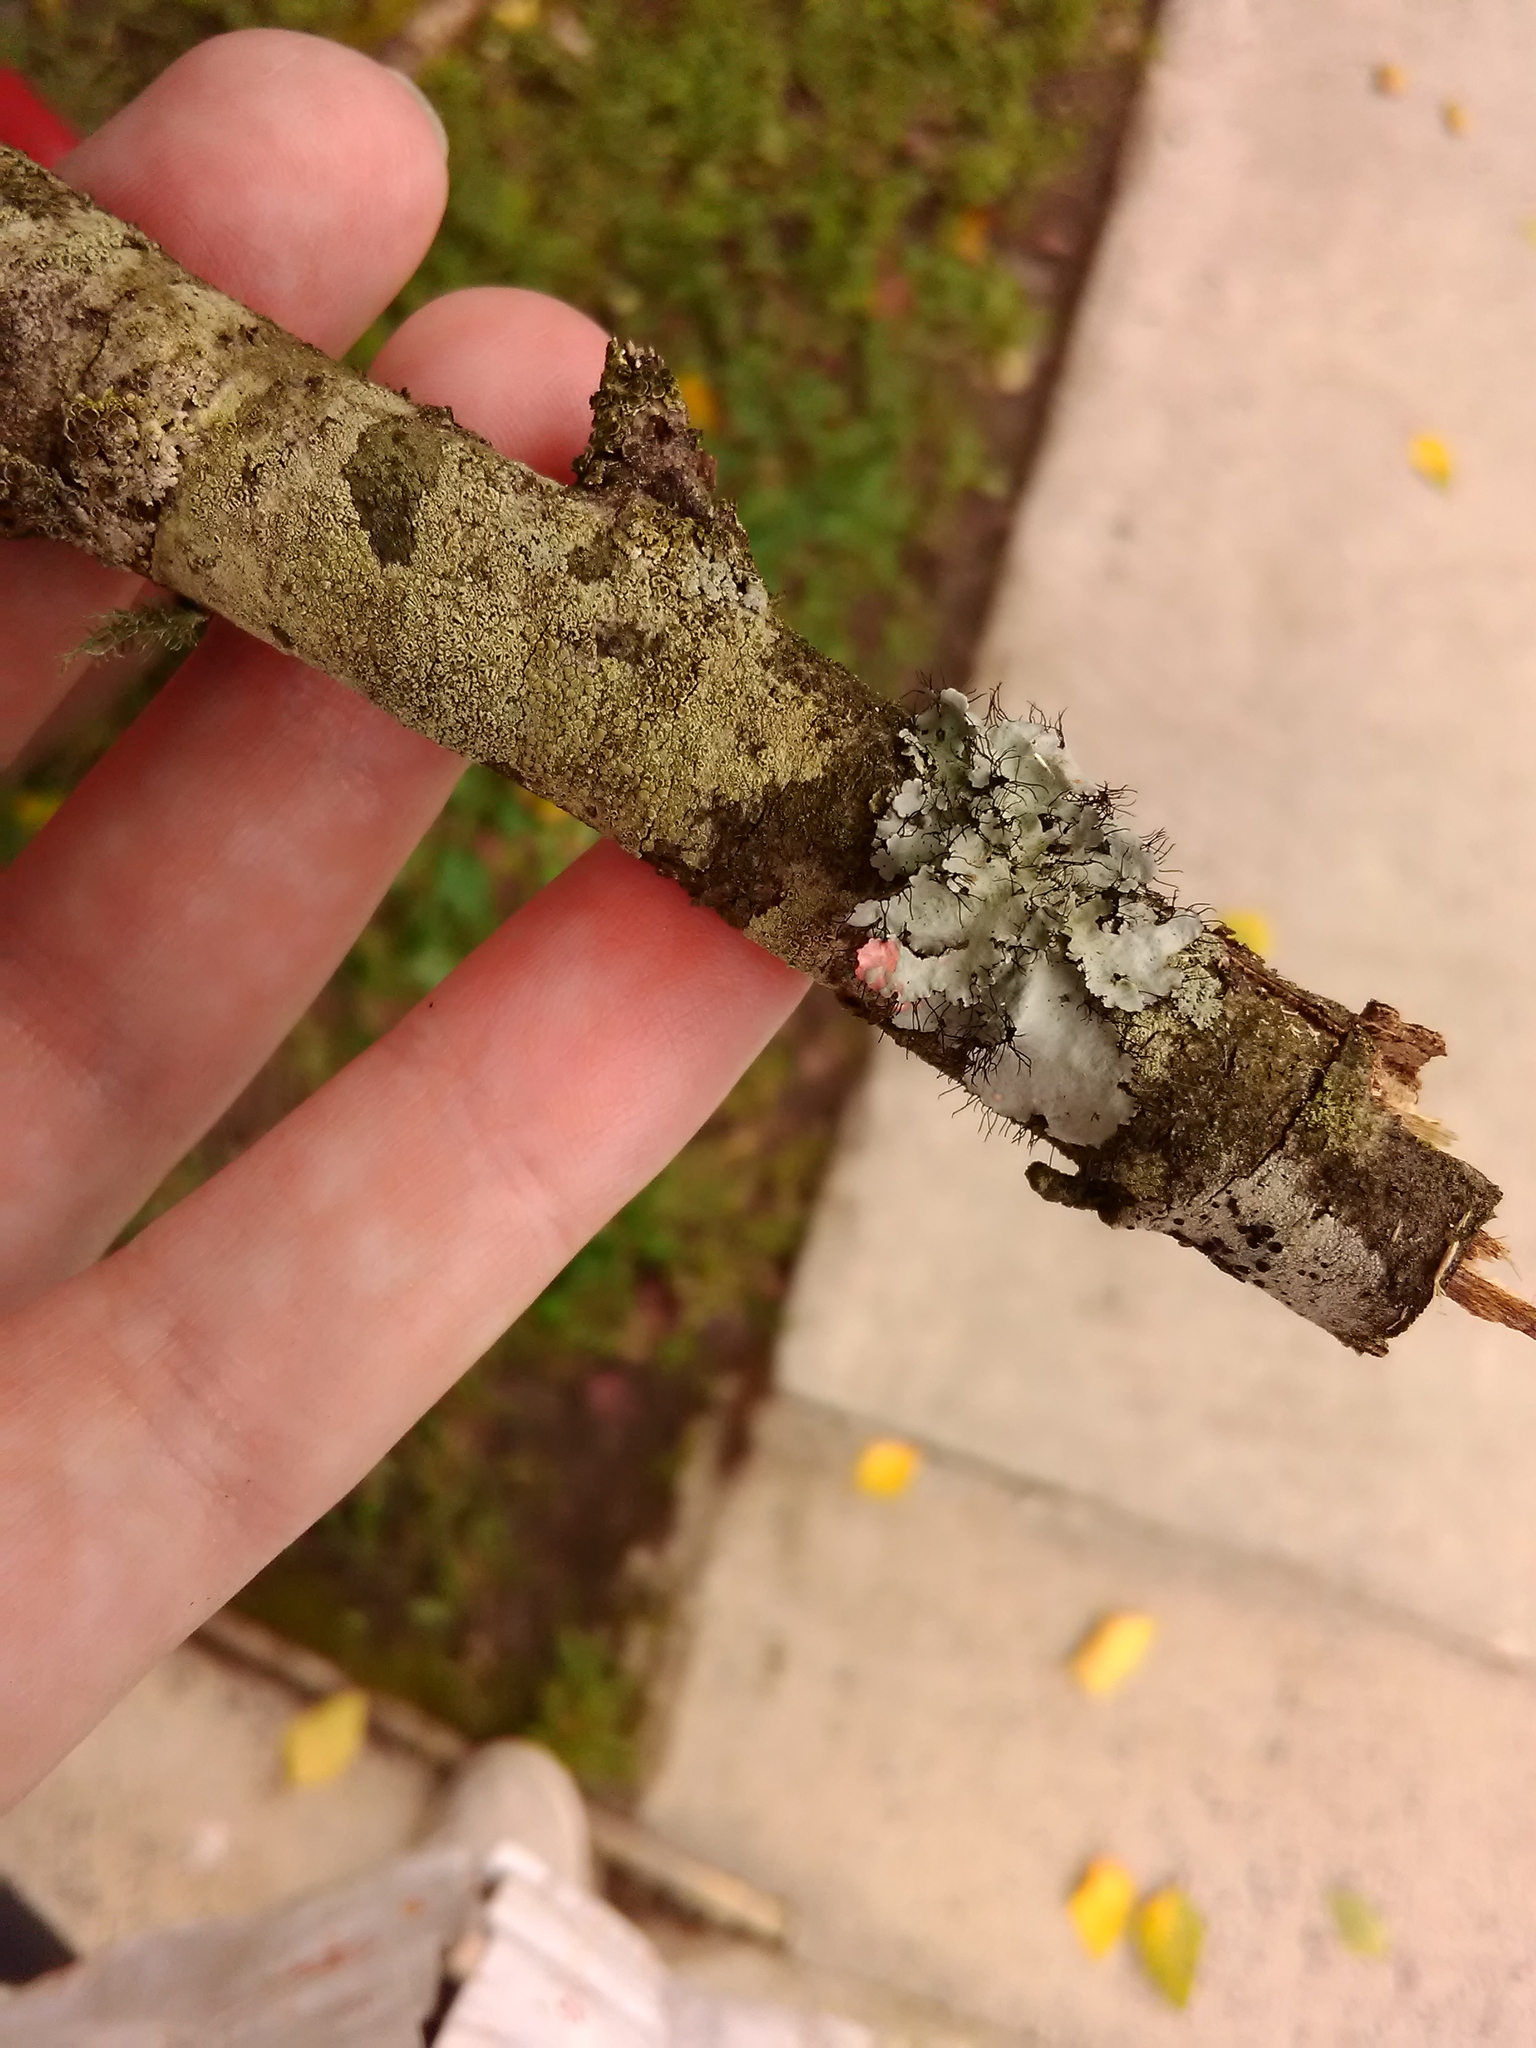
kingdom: Fungi
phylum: Ascomycota
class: Lecanoromycetes
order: Lecanorales
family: Parmeliaceae
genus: Parmotrema
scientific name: Parmotrema hypotropum
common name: Powdered ruffle lichen
